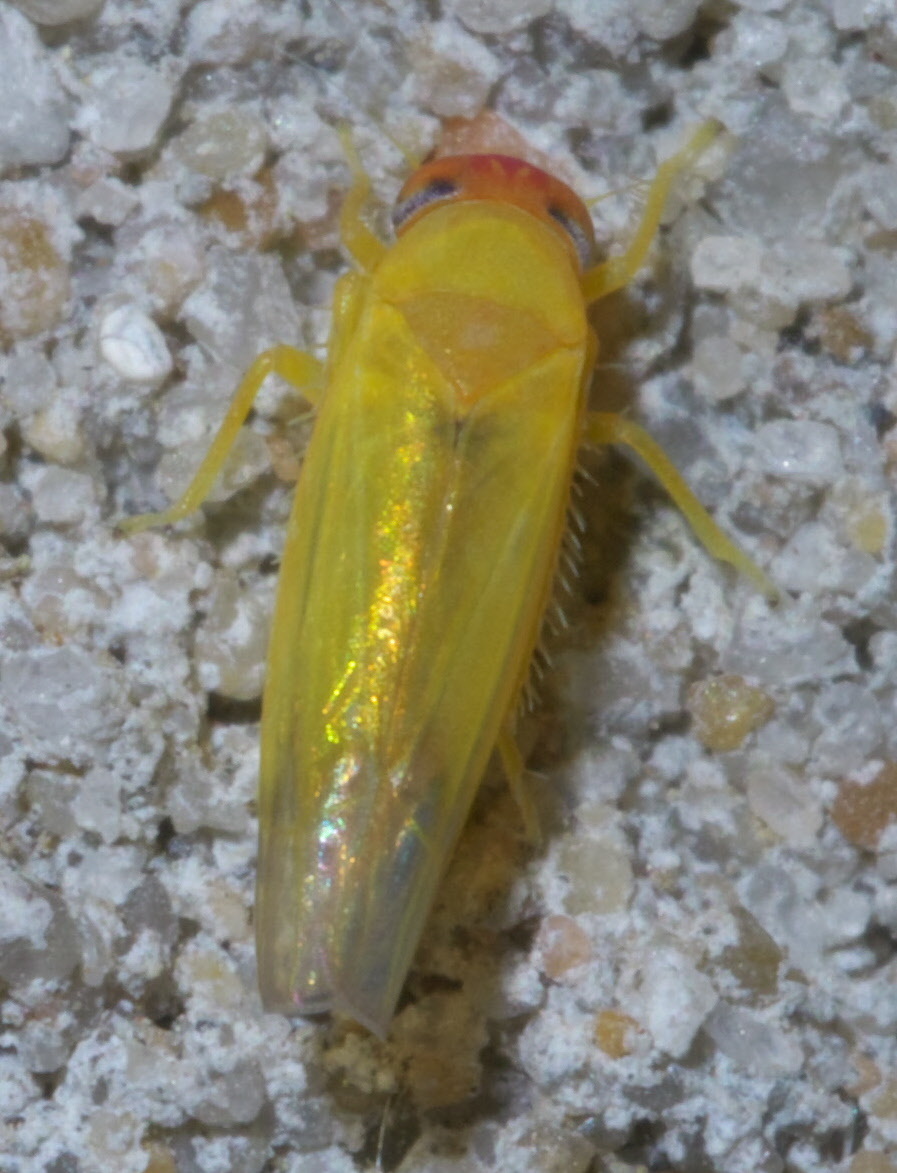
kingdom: Animalia
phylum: Arthropoda
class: Insecta
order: Hemiptera
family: Cicadellidae
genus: Alebra
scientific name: Alebra rubrafrons
